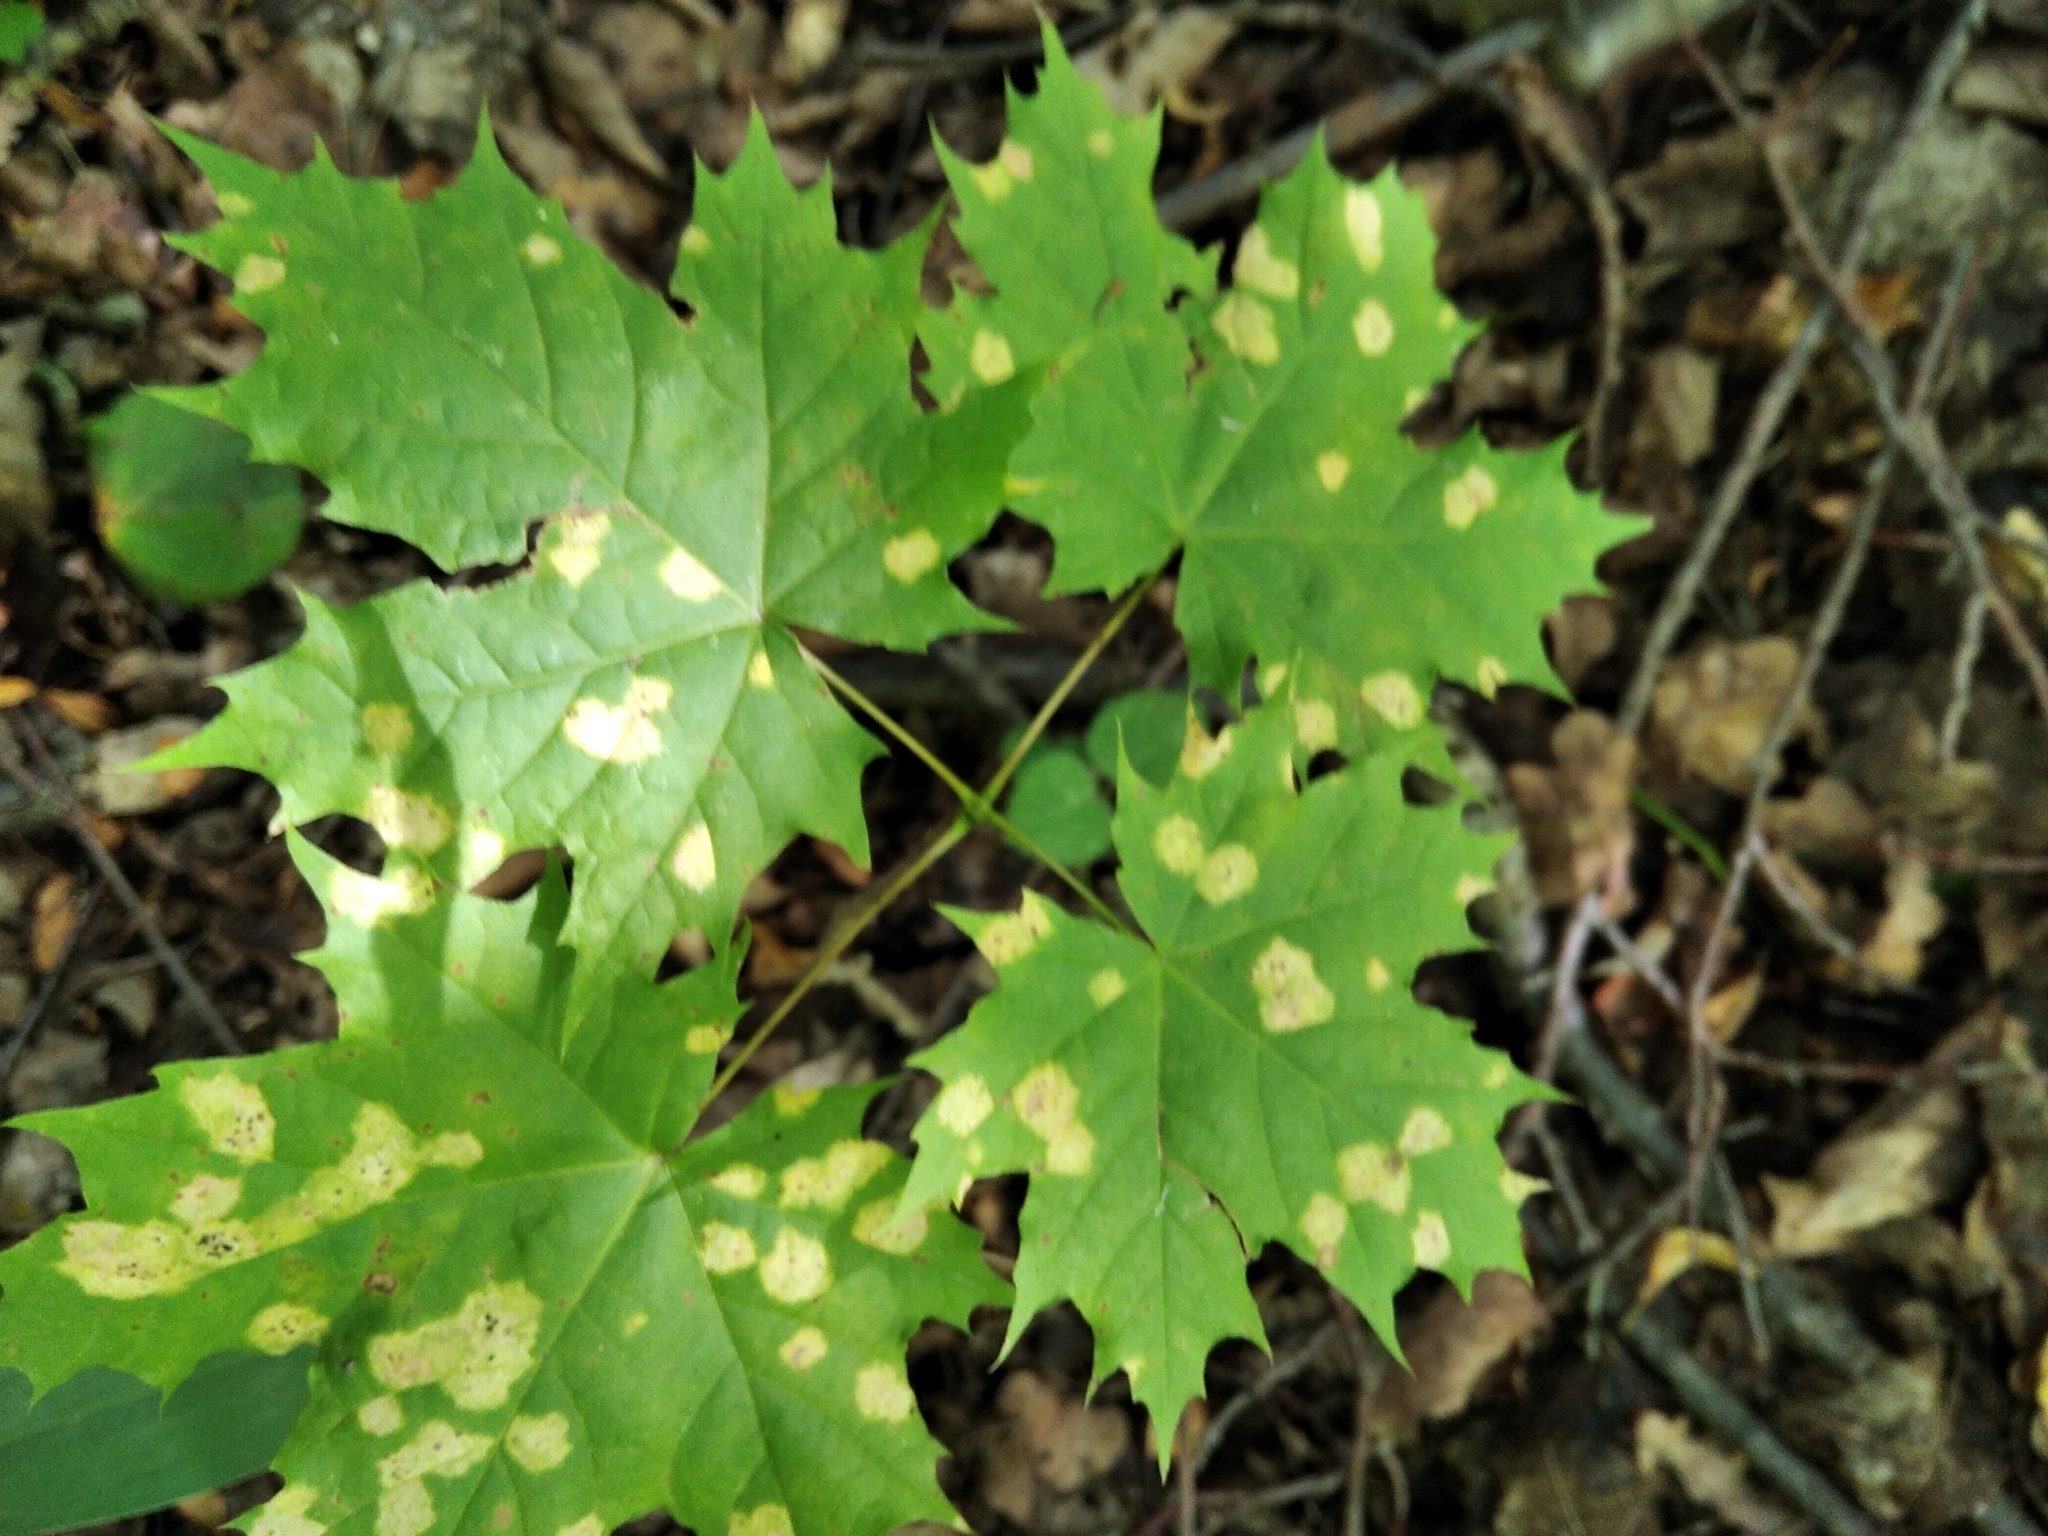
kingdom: Fungi
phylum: Ascomycota
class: Leotiomycetes
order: Rhytismatales
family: Rhytismataceae
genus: Rhytisma
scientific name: Rhytisma acerinum
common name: European tar spot
